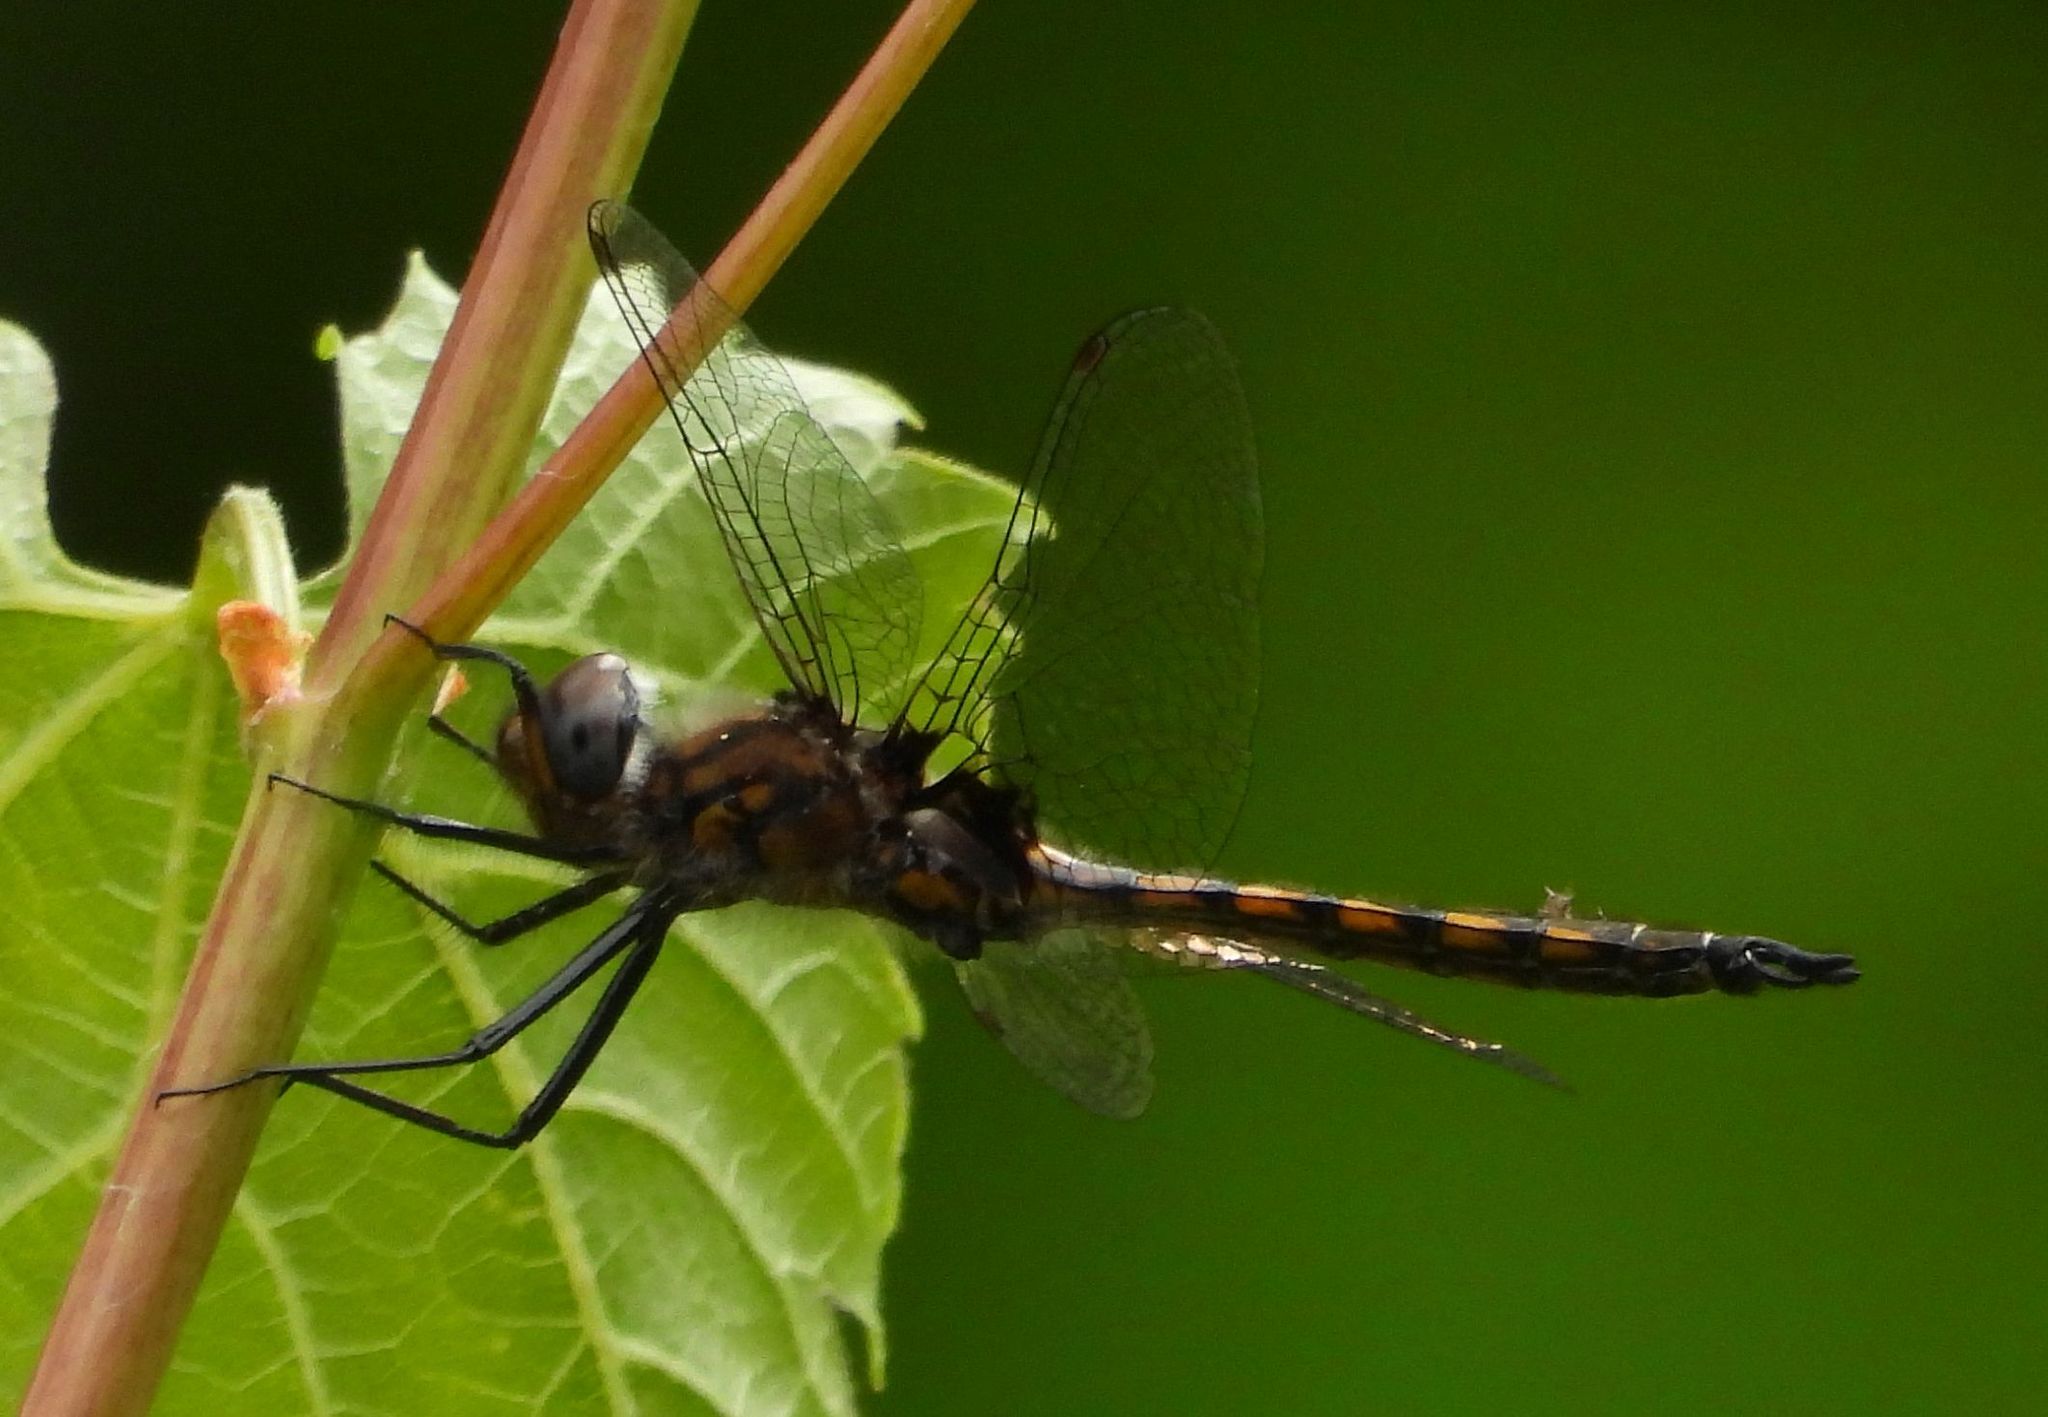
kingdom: Animalia
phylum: Arthropoda
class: Insecta
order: Odonata
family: Corduliidae
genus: Epitheca
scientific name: Epitheca spinigera
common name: Spiny baskettail
